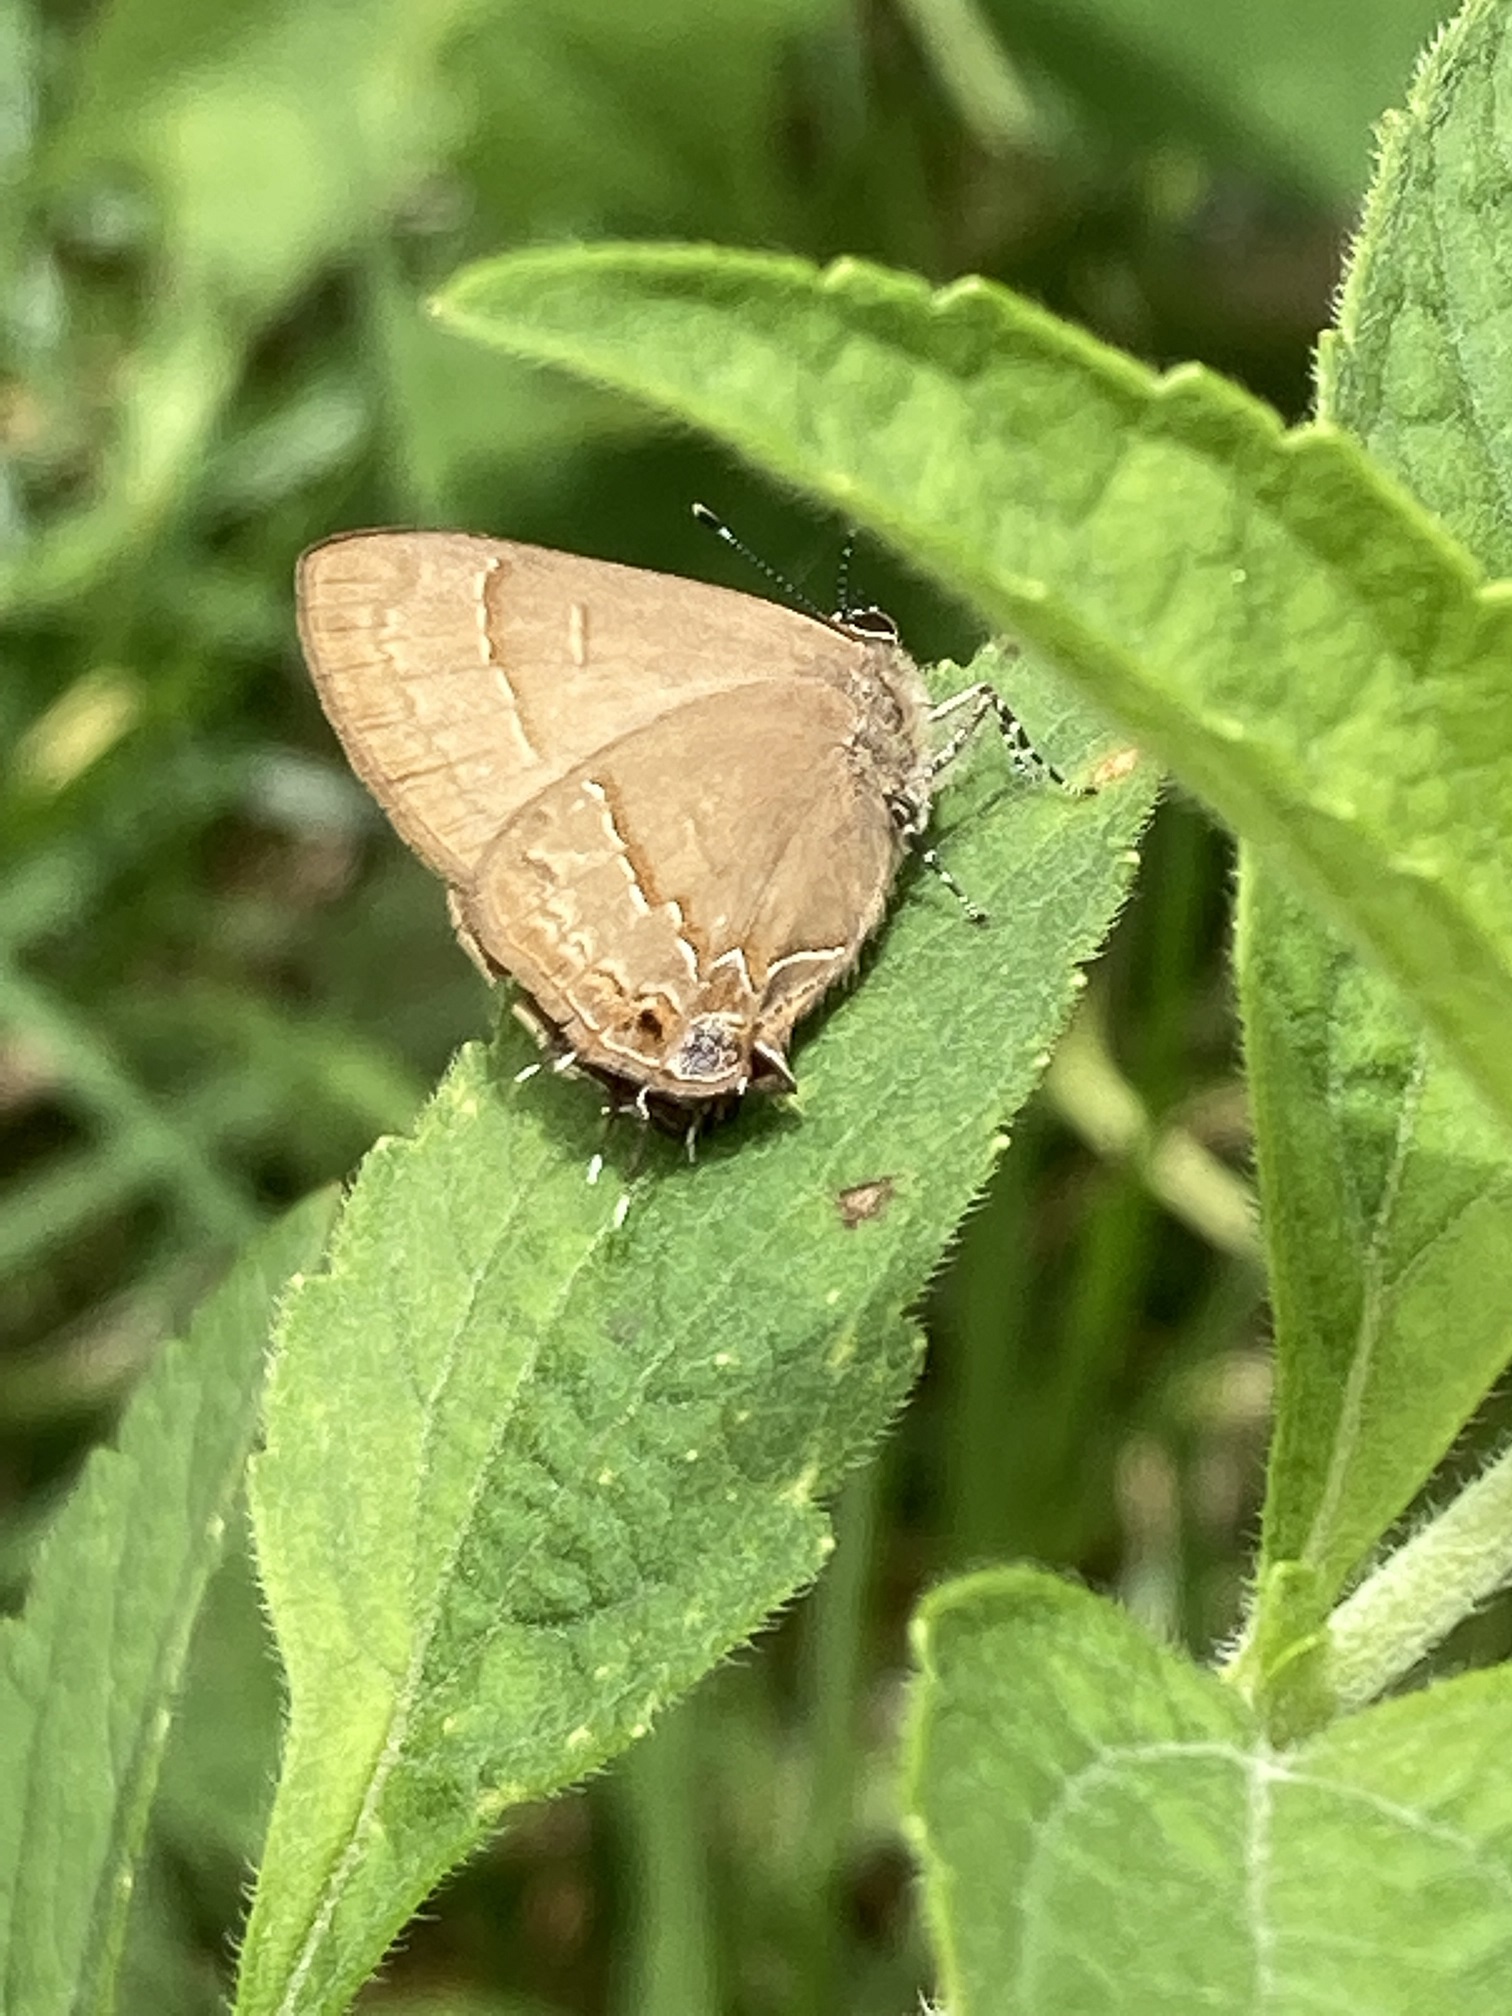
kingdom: Animalia
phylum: Arthropoda
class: Insecta
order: Lepidoptera
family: Lycaenidae
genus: Electrostrymon
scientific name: Electrostrymon denarius
